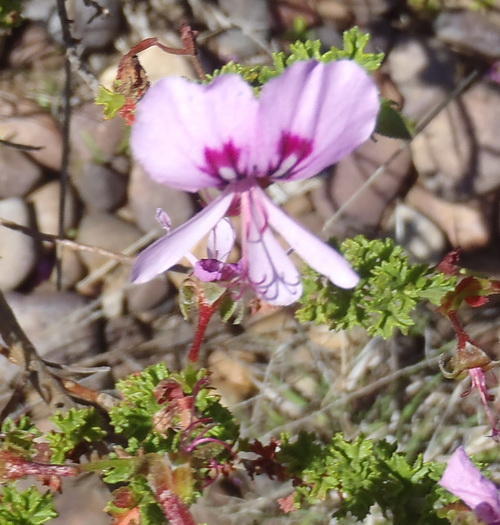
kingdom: Plantae
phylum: Tracheophyta
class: Magnoliopsida
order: Geraniales
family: Geraniaceae
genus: Pelargonium
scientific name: Pelargonium crispum
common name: Crisped-leaf pelargonium
